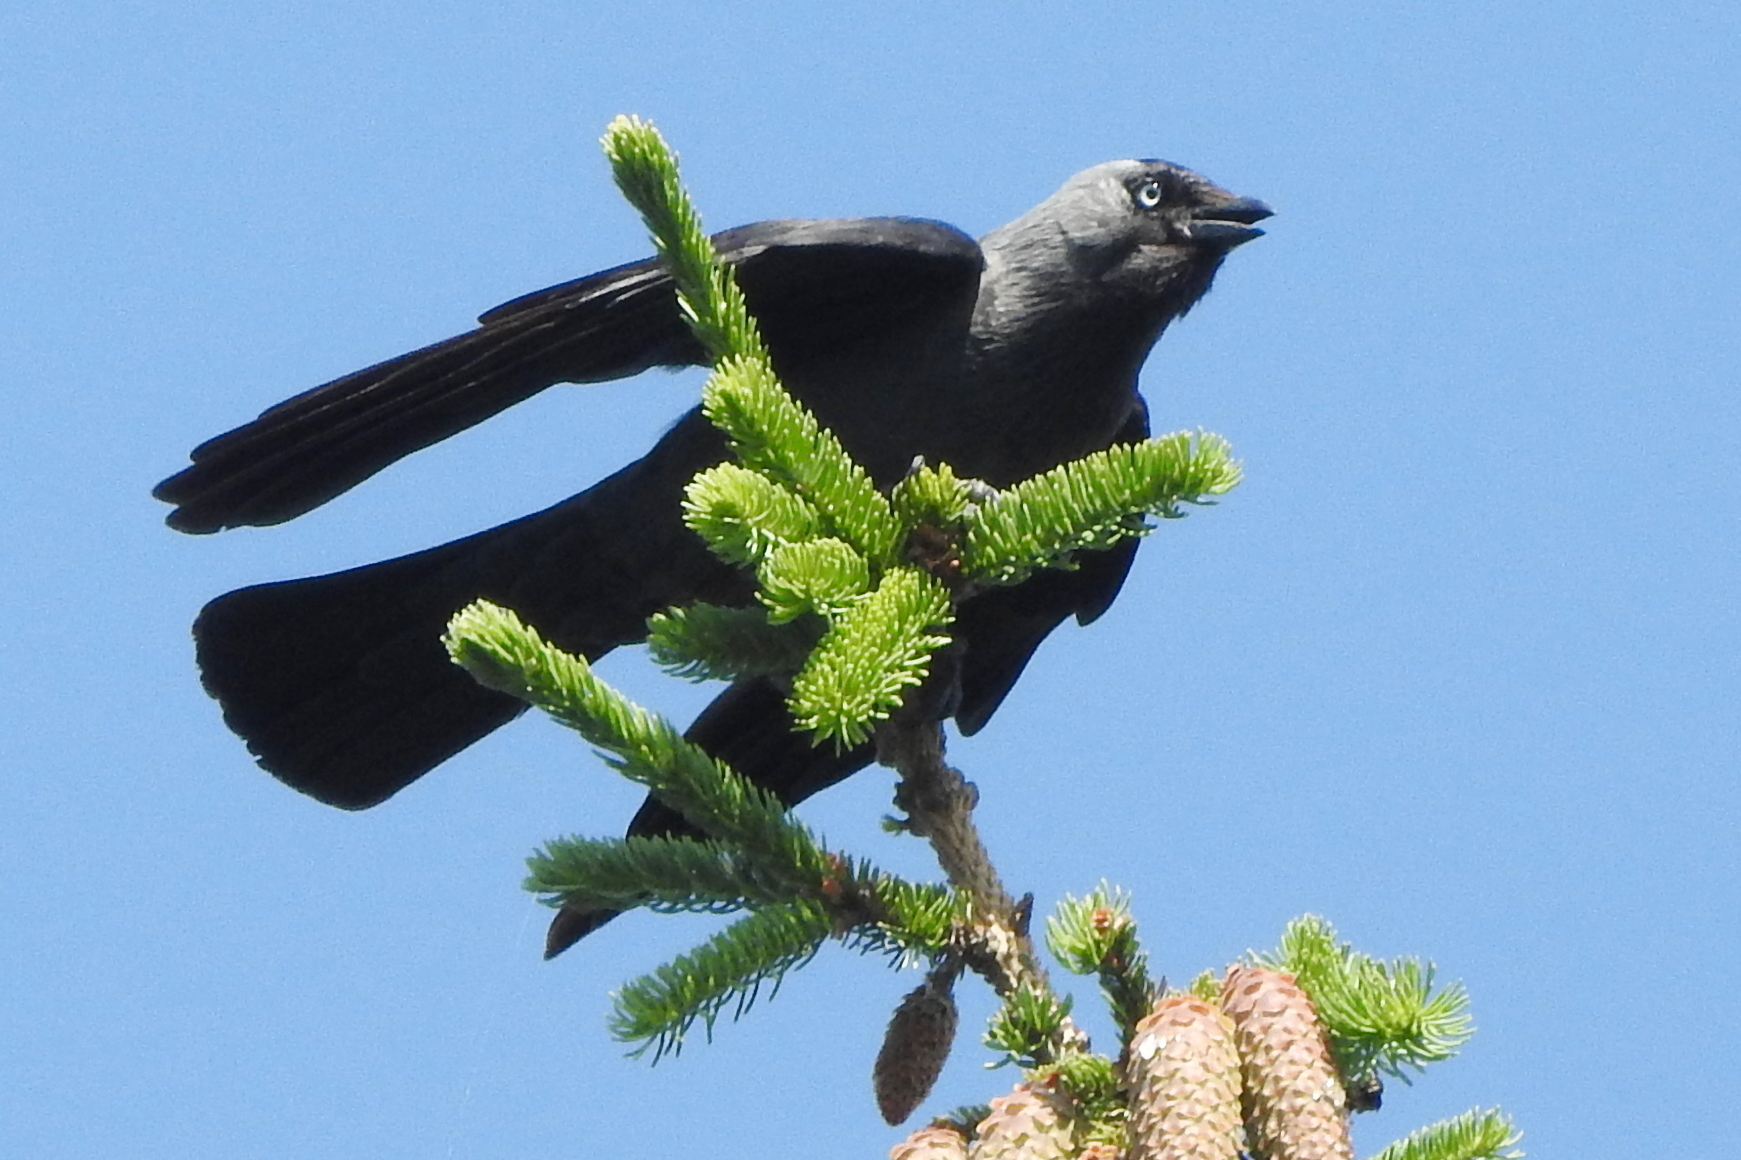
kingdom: Animalia
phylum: Chordata
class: Aves
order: Passeriformes
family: Corvidae
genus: Coloeus
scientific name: Coloeus monedula
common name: Western jackdaw
